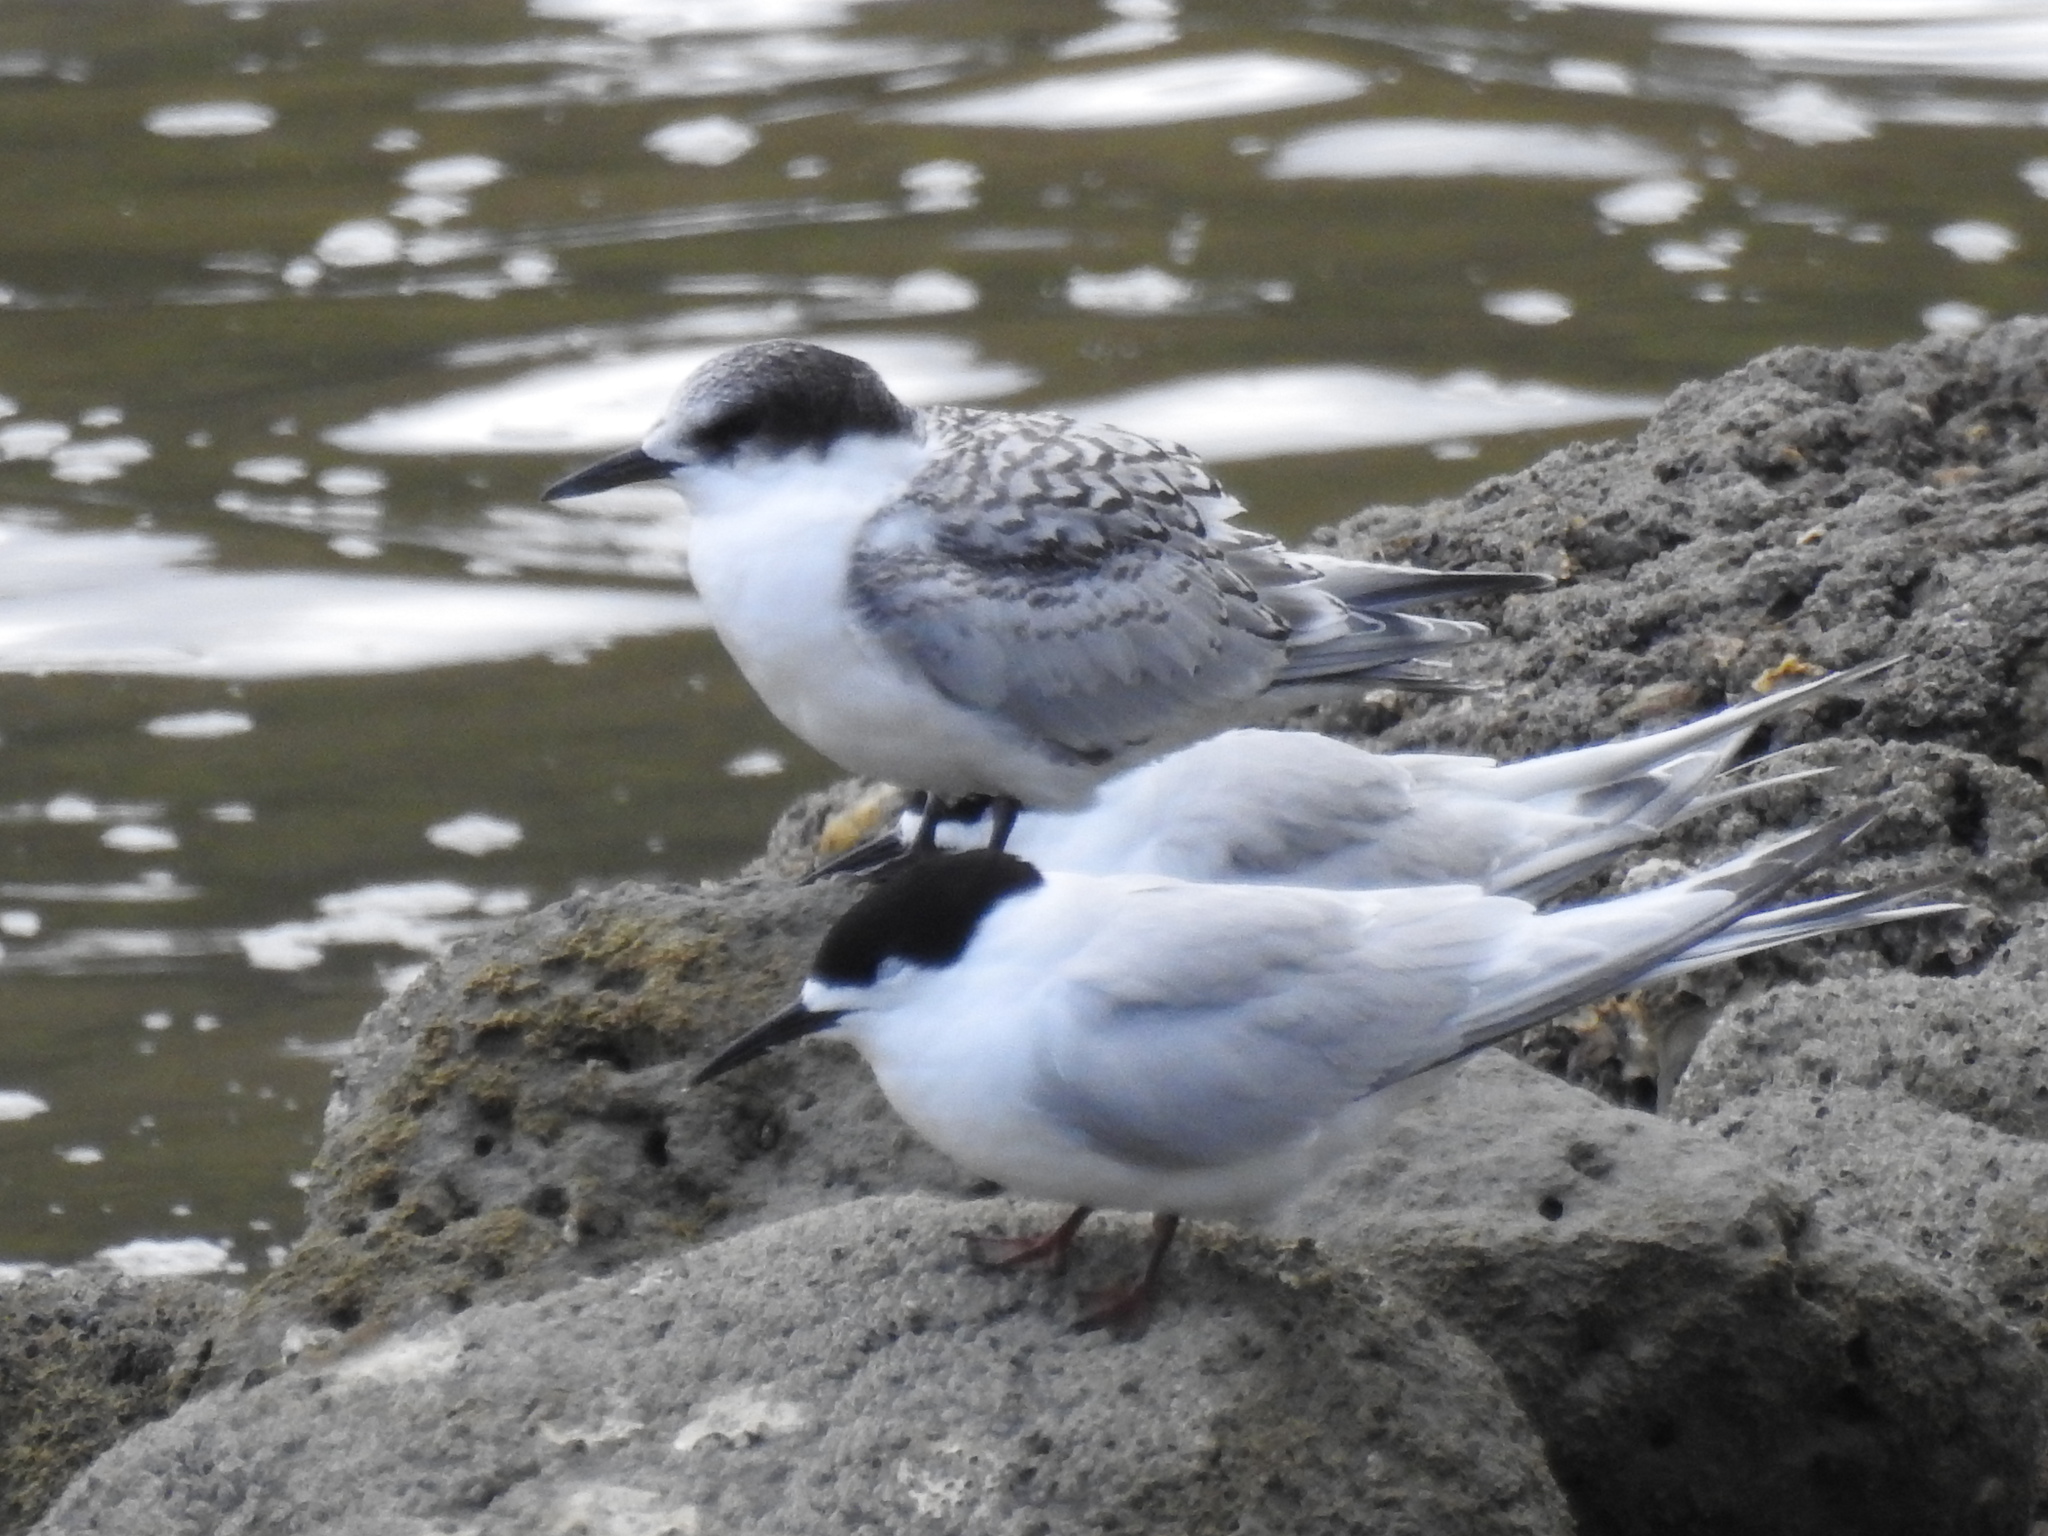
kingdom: Animalia
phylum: Chordata
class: Aves
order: Charadriiformes
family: Laridae
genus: Sterna
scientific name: Sterna striata
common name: White-fronted tern
